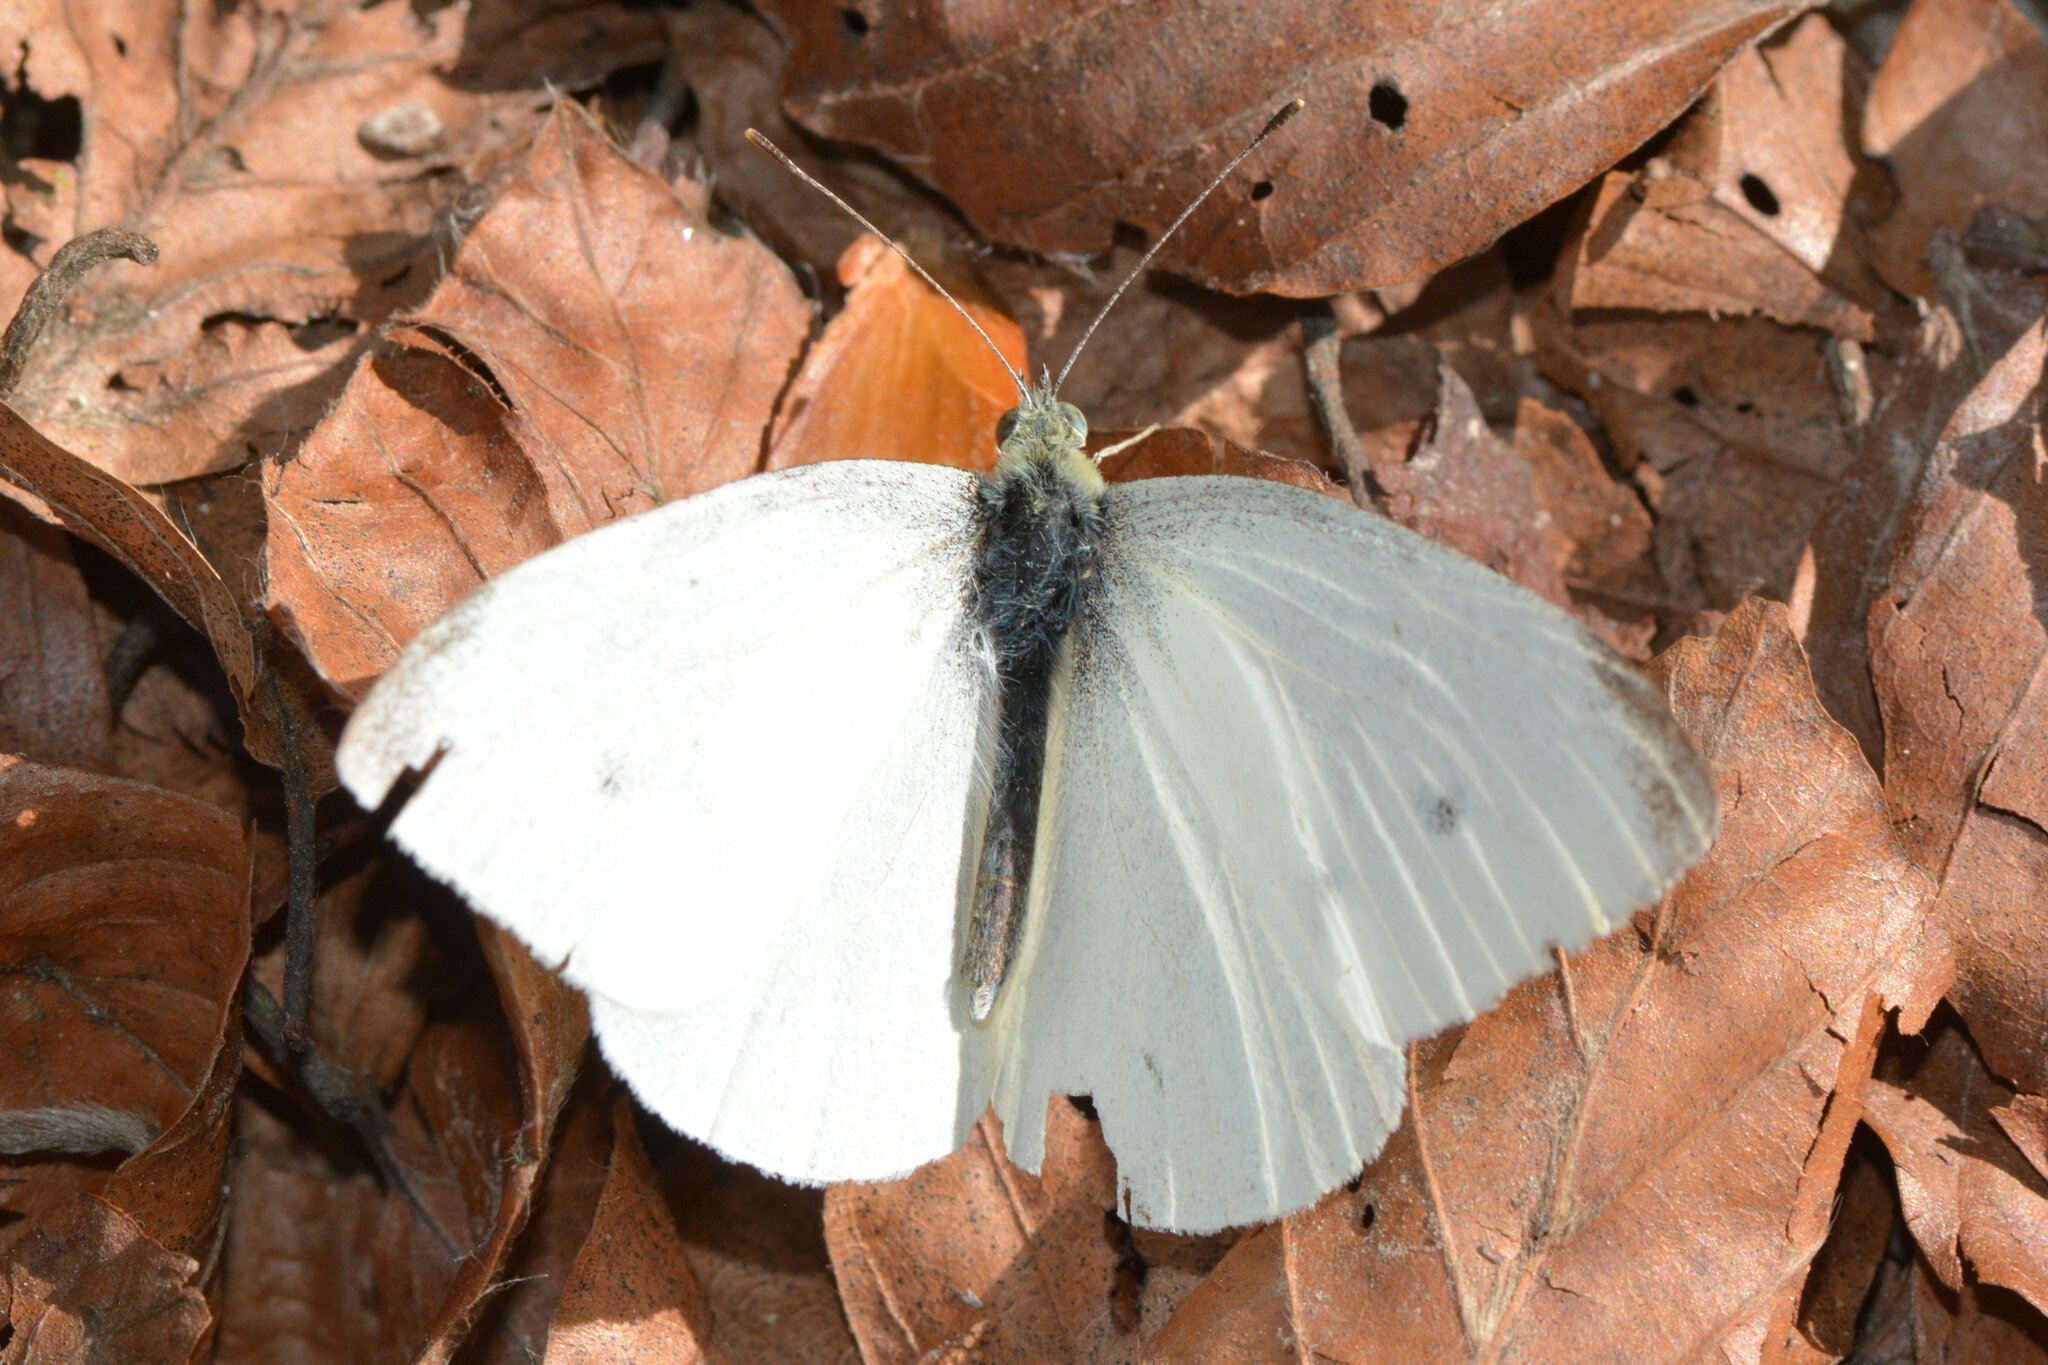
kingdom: Animalia
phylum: Arthropoda
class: Insecta
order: Lepidoptera
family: Pieridae
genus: Pieris
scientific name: Pieris rapae
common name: Small white
